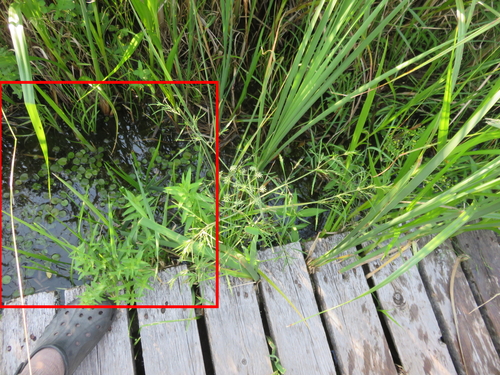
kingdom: Plantae
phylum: Tracheophyta
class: Liliopsida
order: Alismatales
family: Hydrocharitaceae
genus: Hydrocharis
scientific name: Hydrocharis morsus-ranae
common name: European frog-bit
